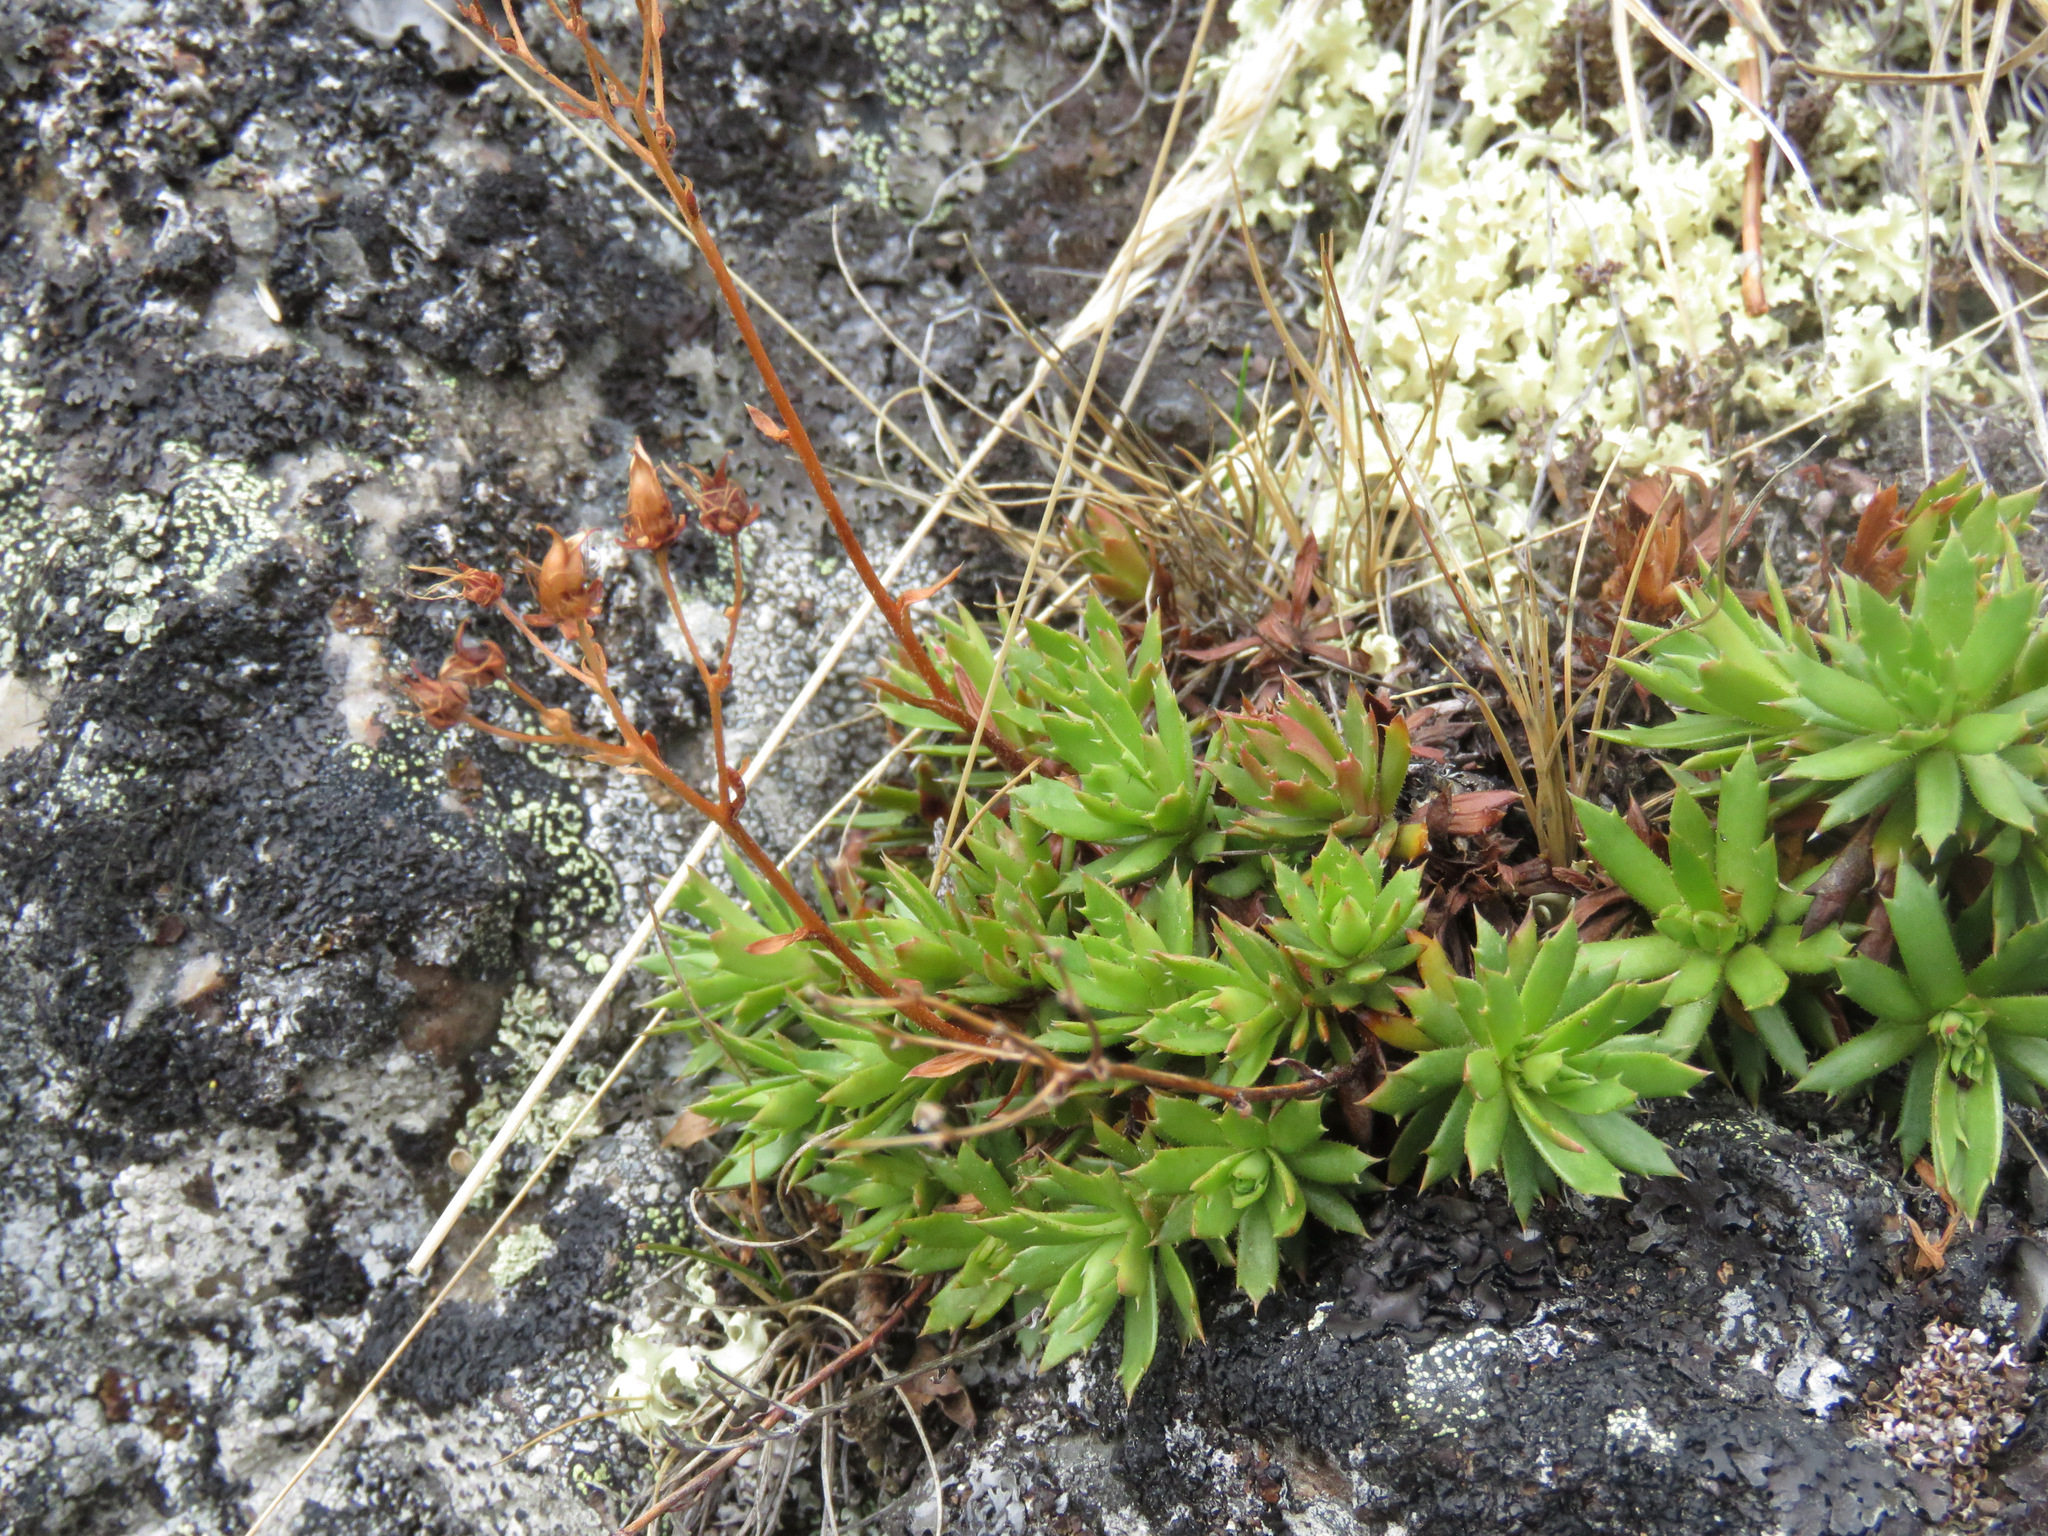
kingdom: Plantae
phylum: Tracheophyta
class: Magnoliopsida
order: Saxifragales
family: Saxifragaceae
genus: Saxifraga
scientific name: Saxifraga tricuspidata
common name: Prickly saxifrage
